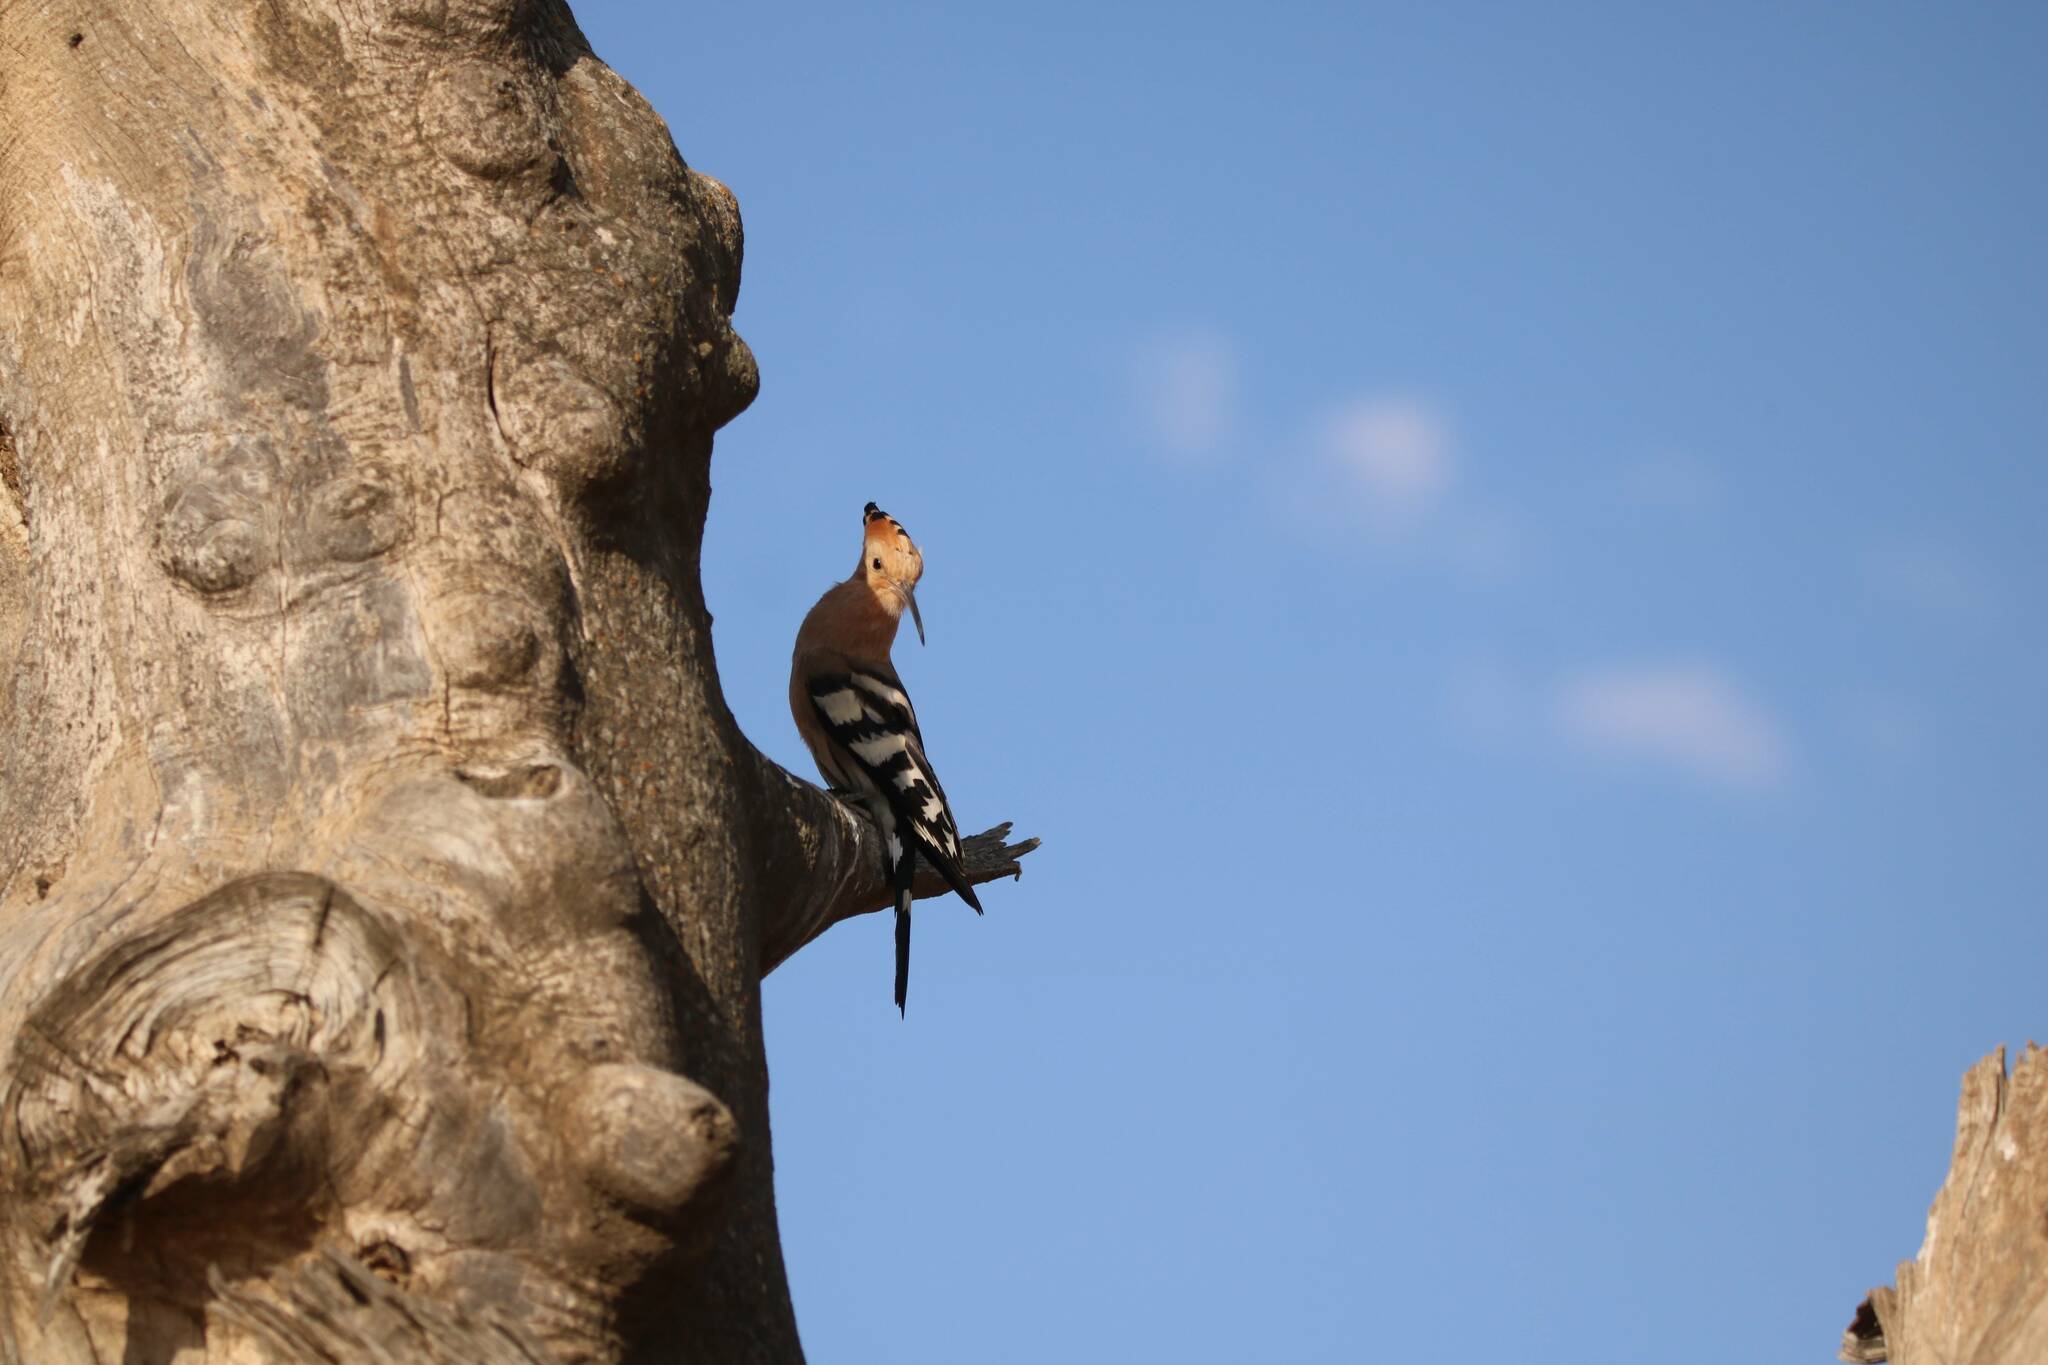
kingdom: Animalia
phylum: Chordata
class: Aves
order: Bucerotiformes
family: Upupidae
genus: Upupa
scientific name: Upupa epops
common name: Eurasian hoopoe
